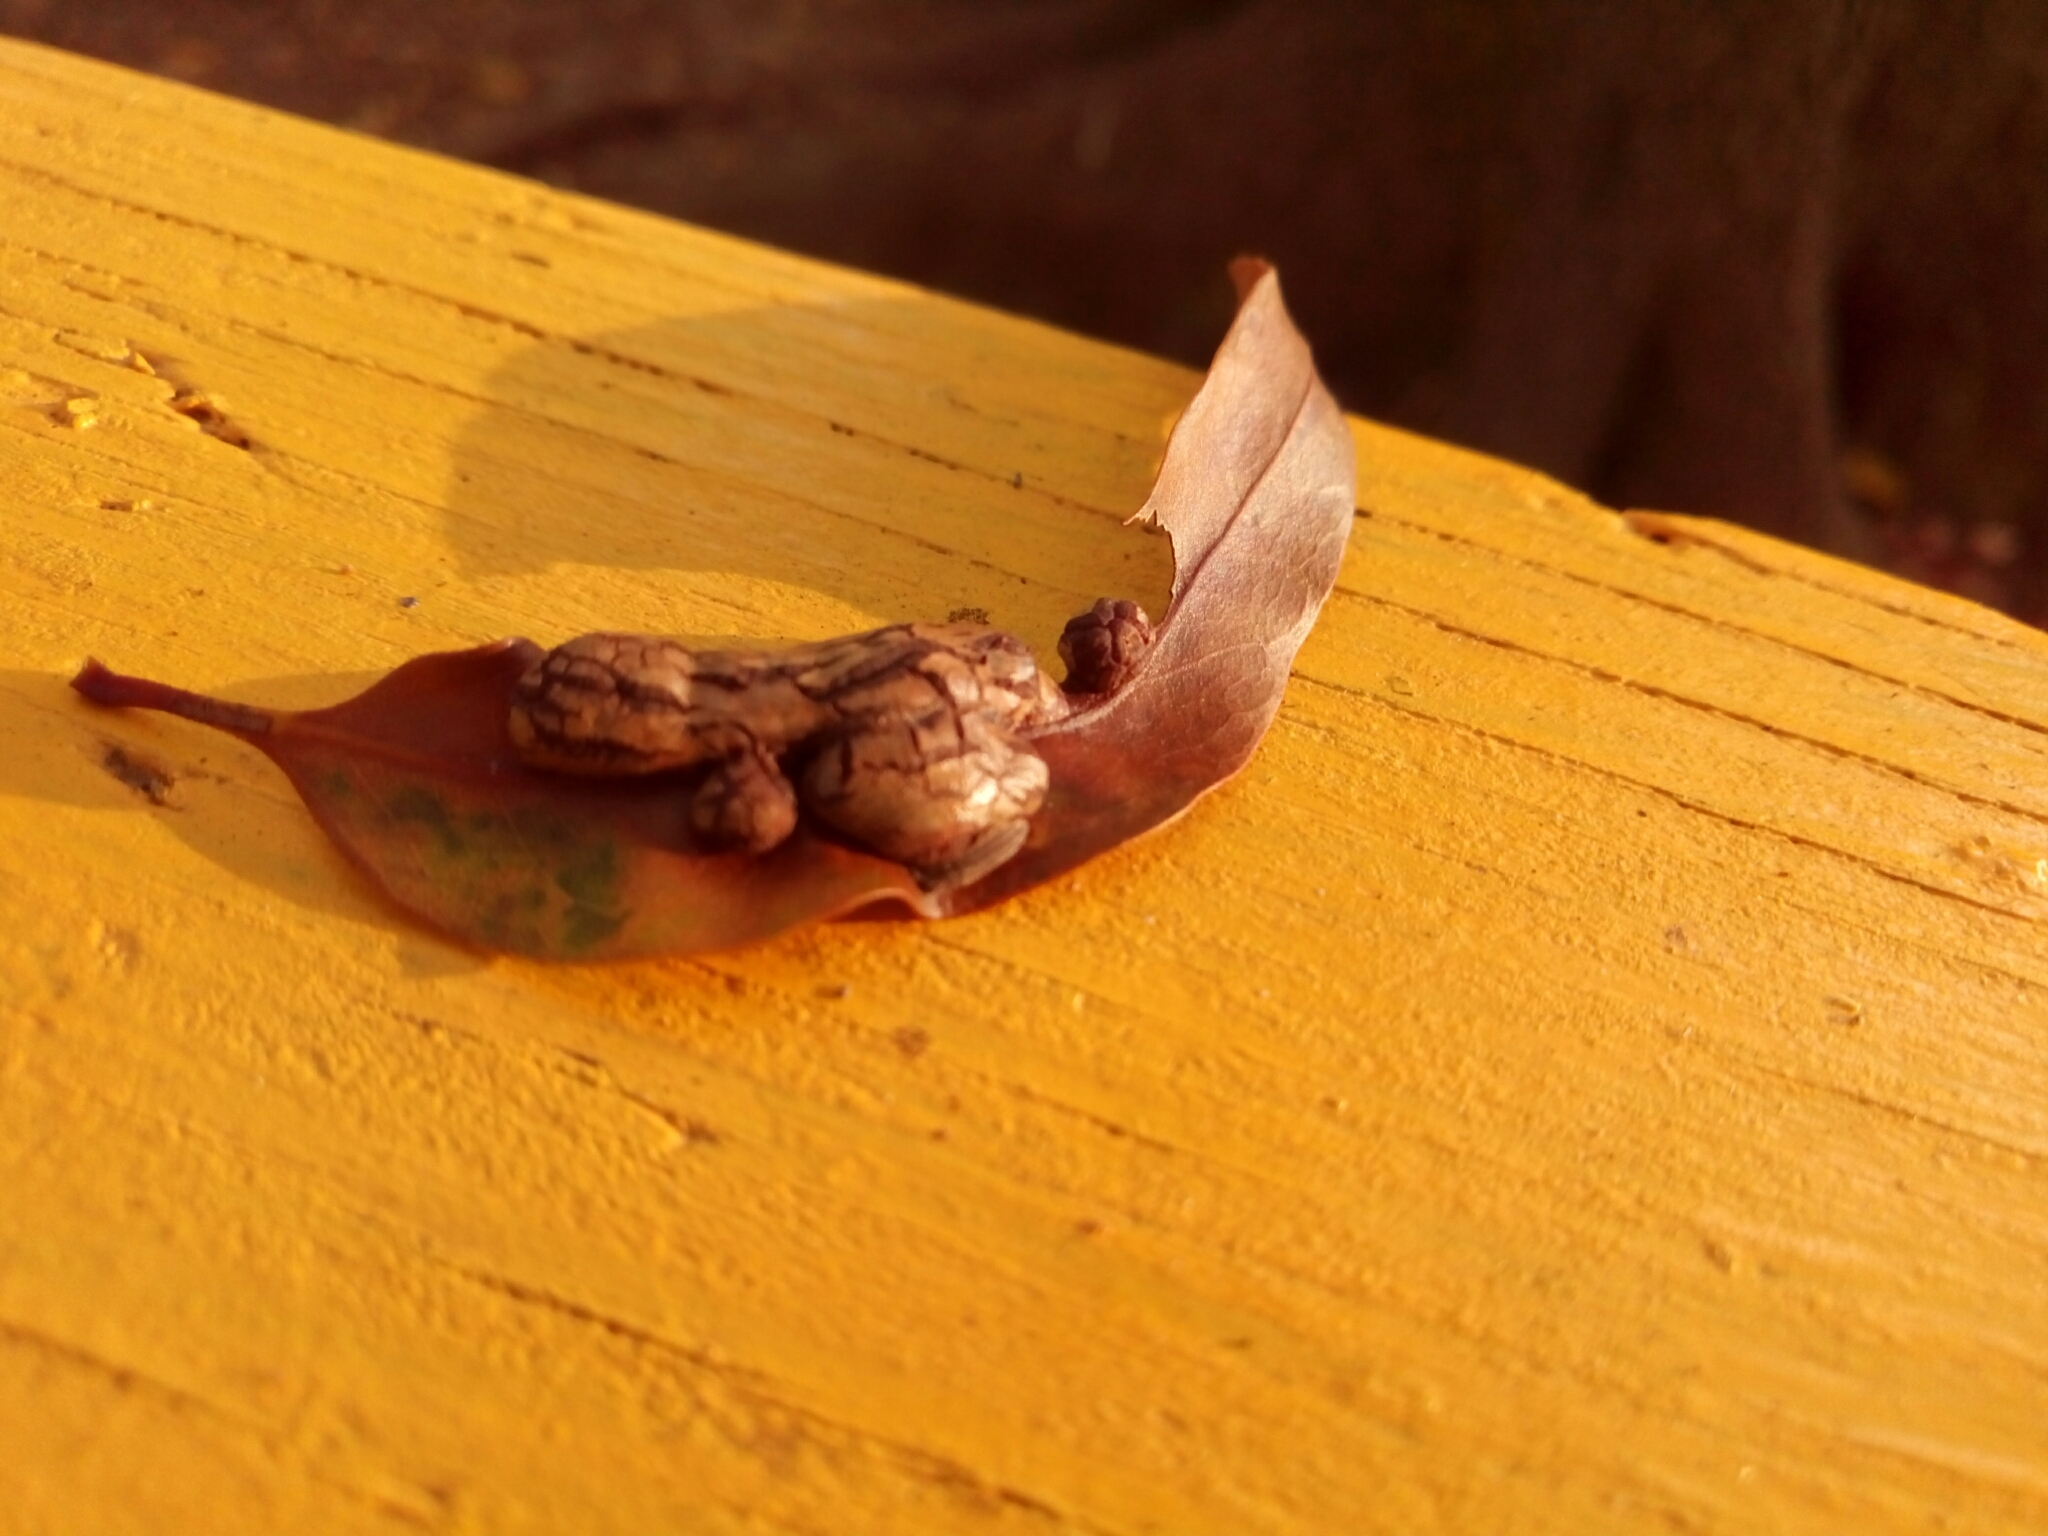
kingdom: Animalia
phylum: Arthropoda
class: Insecta
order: Diptera
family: Cecidomyiidae
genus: Polystepha
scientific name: Polystepha pilulae
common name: Oak leaf gall midge
